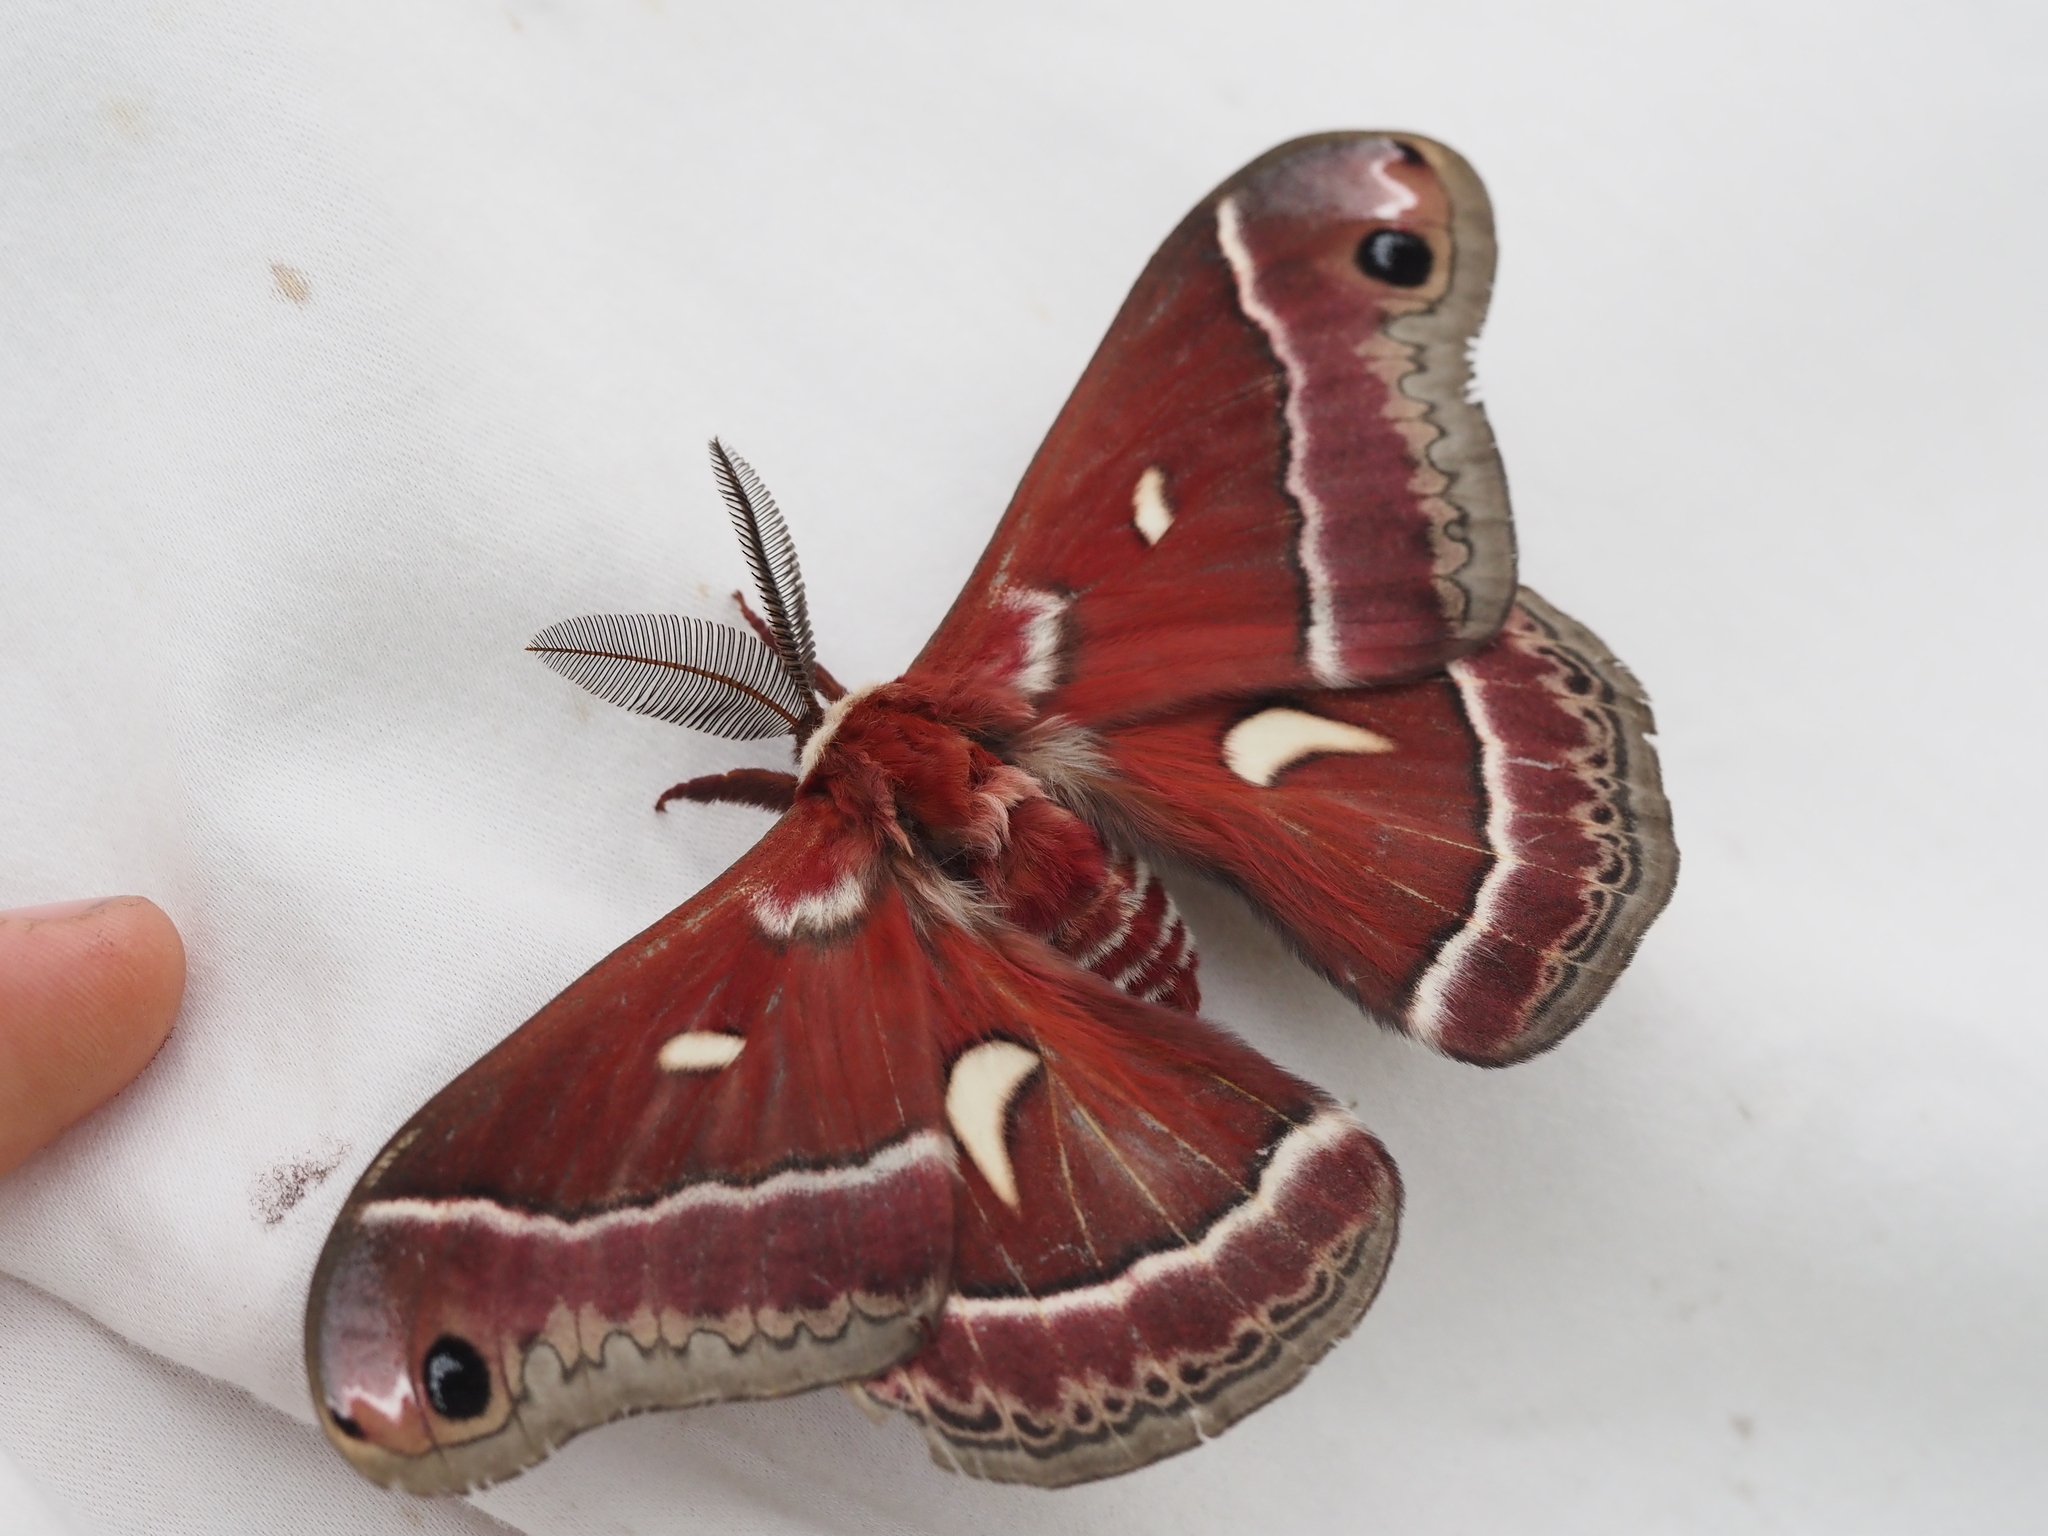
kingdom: Animalia
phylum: Arthropoda
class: Insecta
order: Lepidoptera
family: Saturniidae
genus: Hyalophora
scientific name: Hyalophora euryalus
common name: Ceanothus silkmoth
